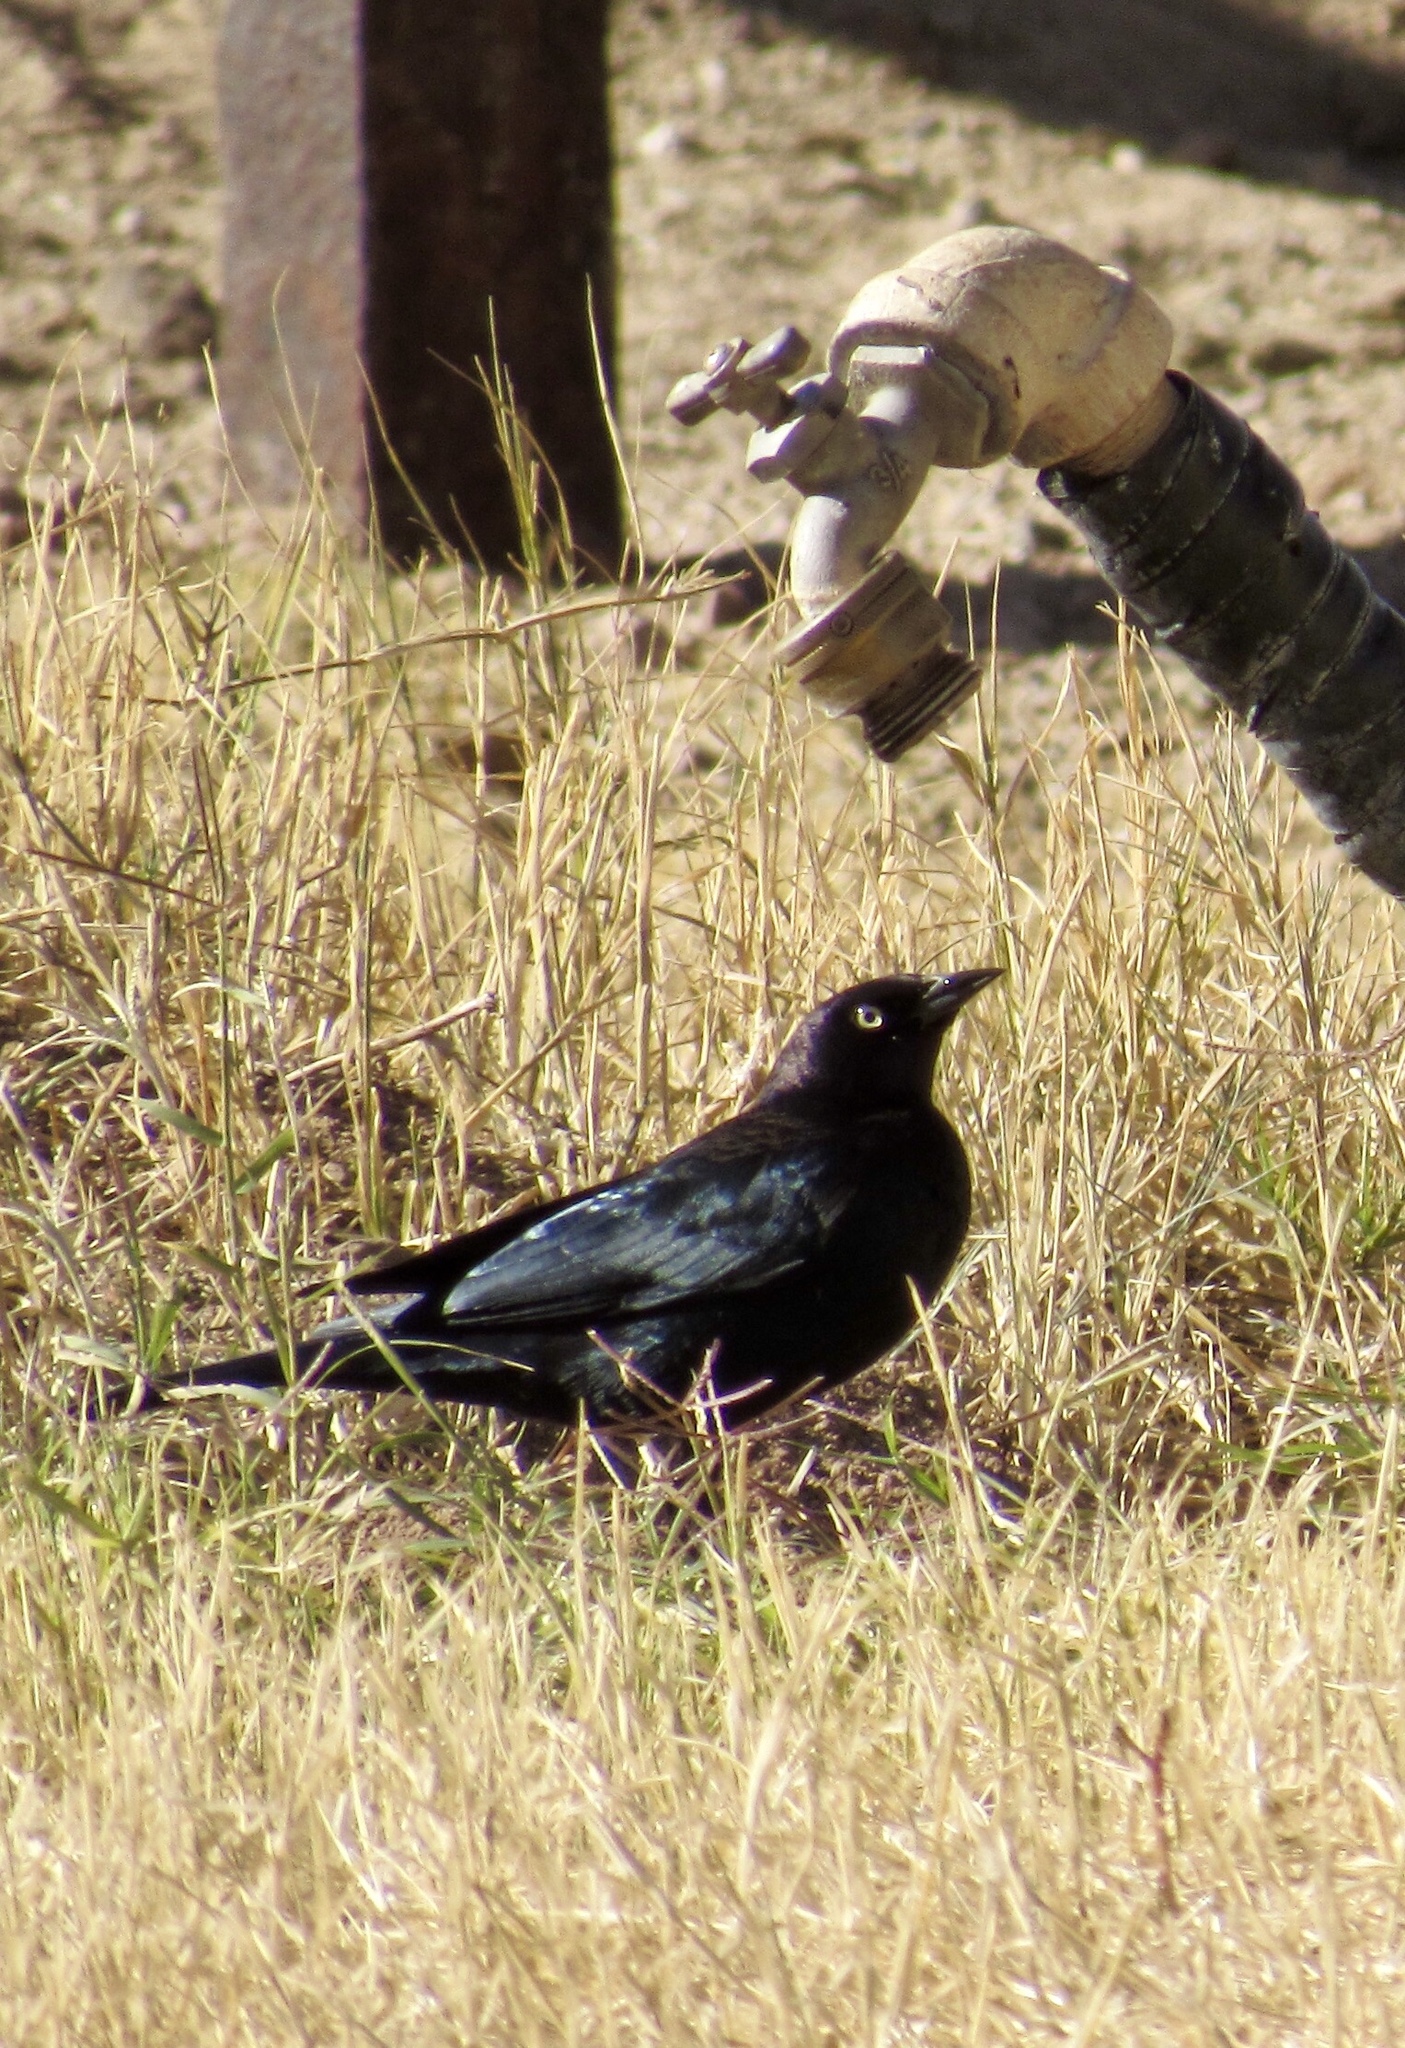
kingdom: Animalia
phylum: Chordata
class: Aves
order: Passeriformes
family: Icteridae
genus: Euphagus
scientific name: Euphagus cyanocephalus
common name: Brewer's blackbird
